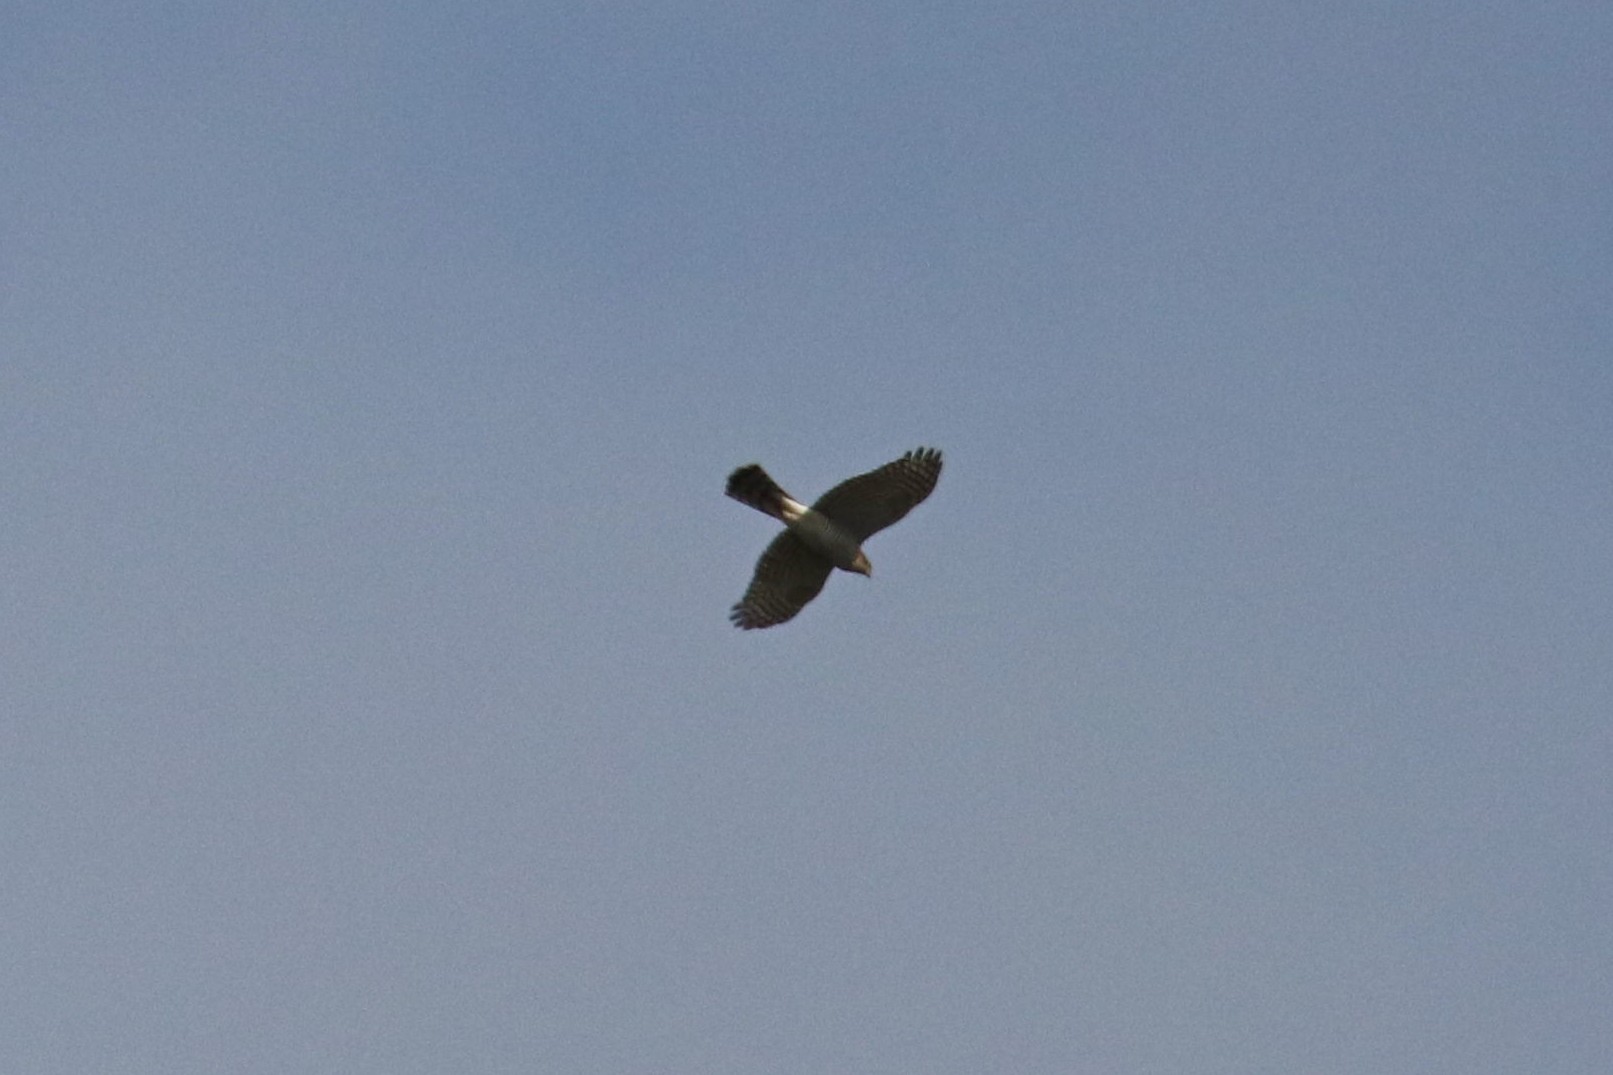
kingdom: Animalia
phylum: Chordata
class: Aves
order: Accipitriformes
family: Accipitridae
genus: Accipiter
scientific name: Accipiter nisus
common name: Eurasian sparrowhawk
